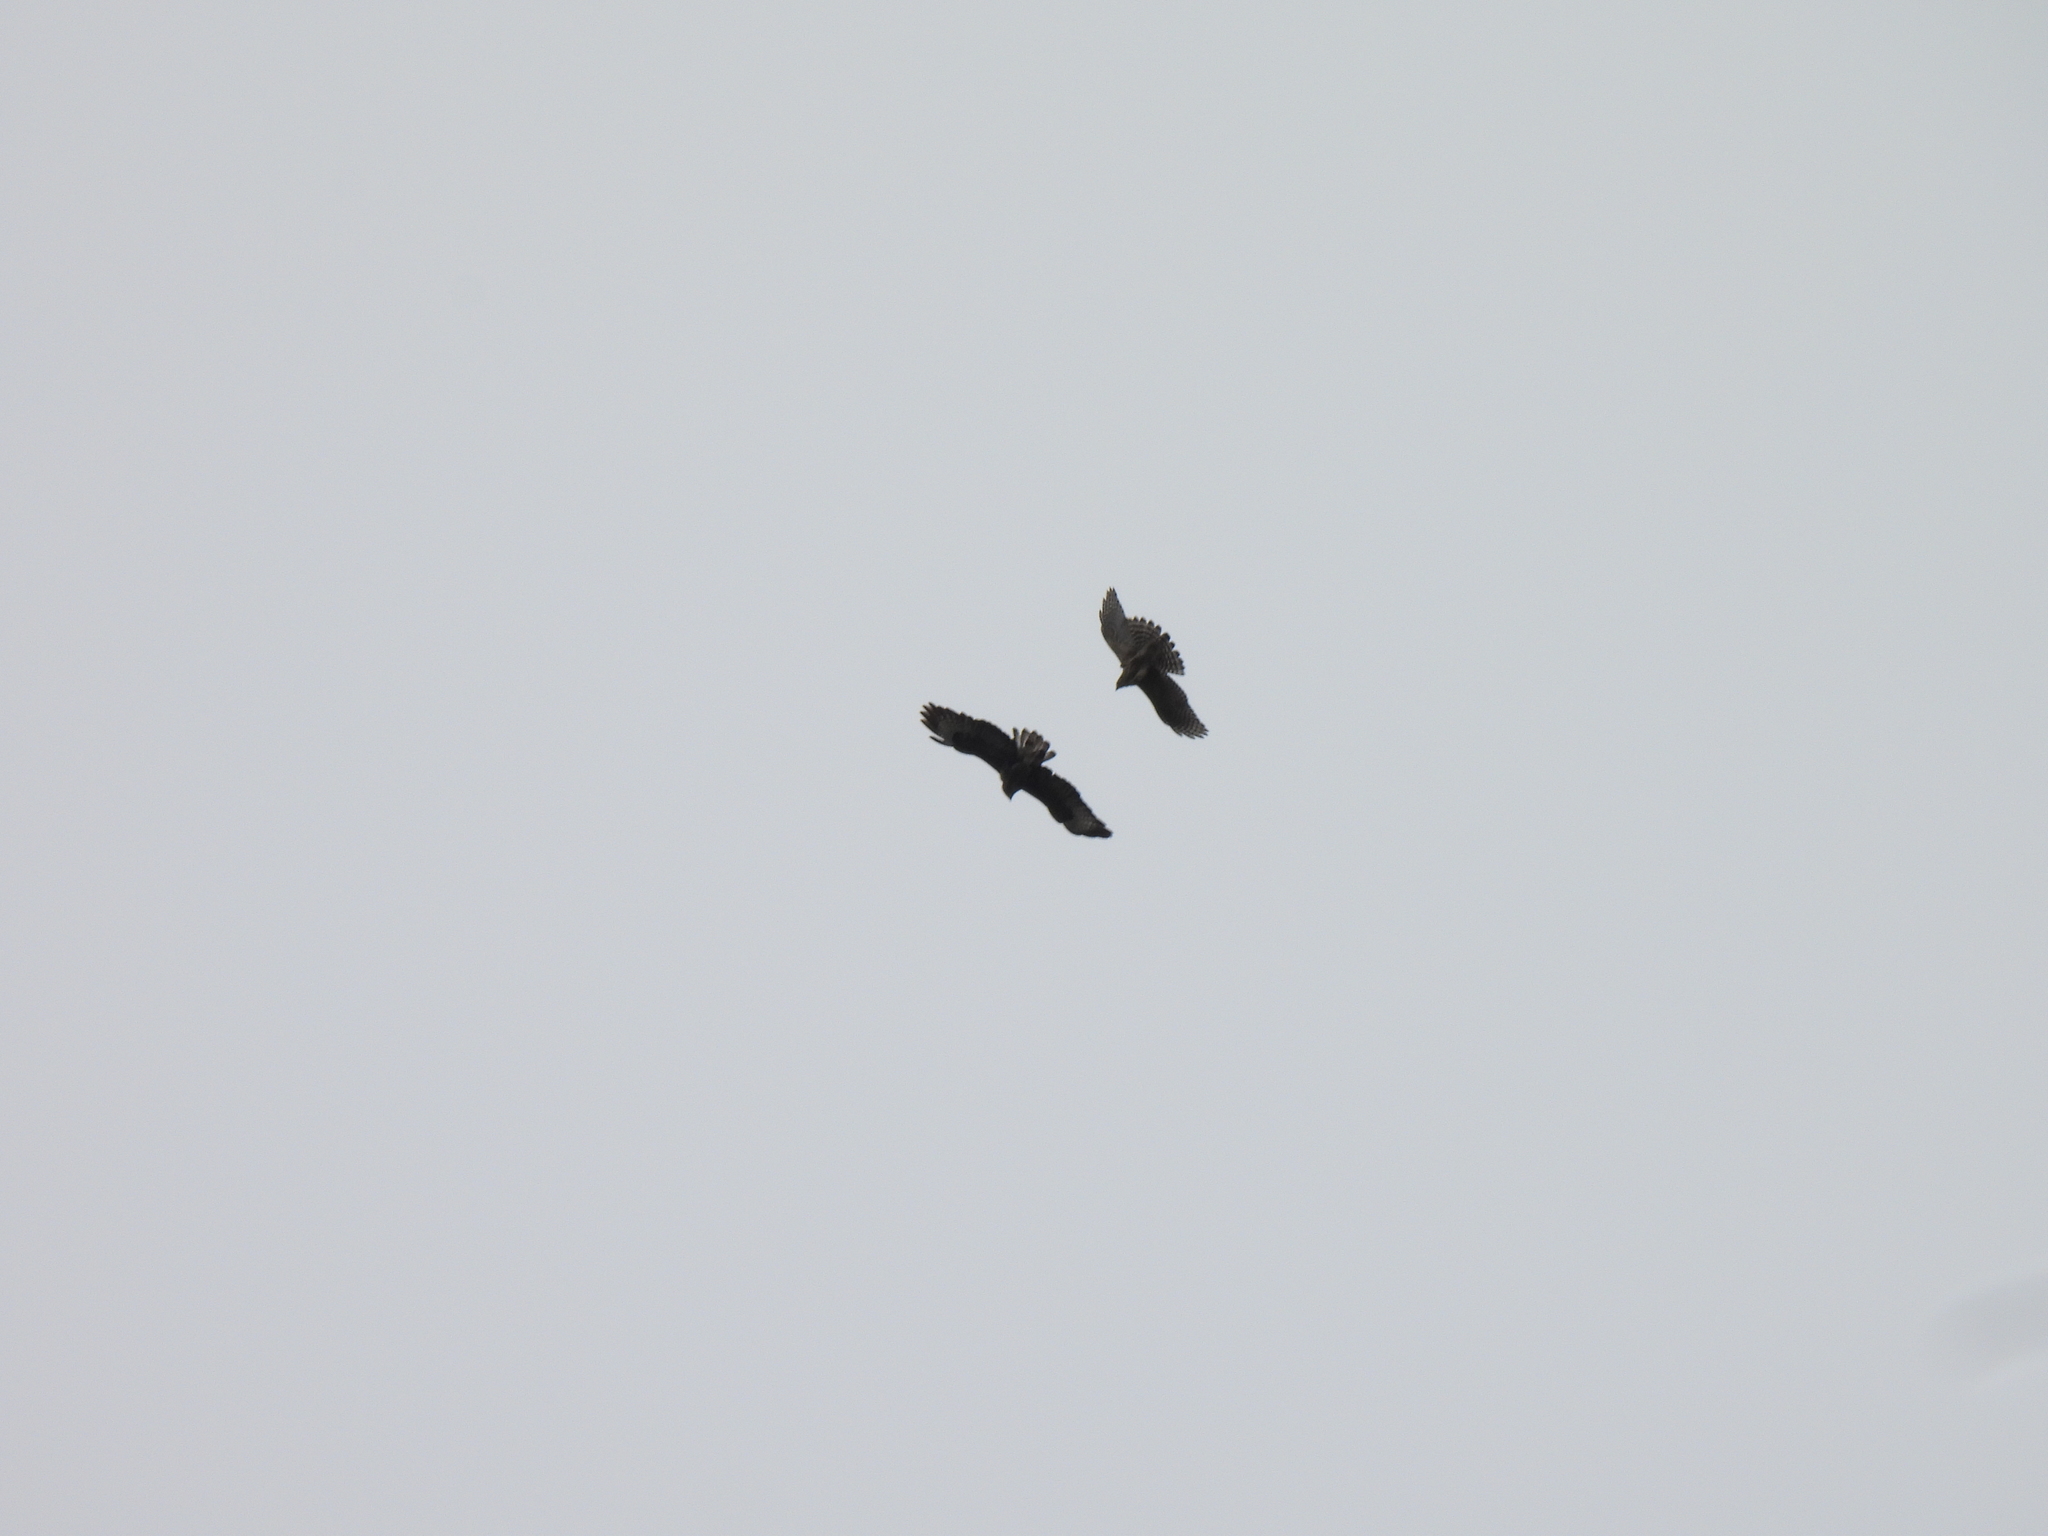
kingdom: Animalia
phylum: Chordata
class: Aves
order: Accipitriformes
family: Accipitridae
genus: Accipiter
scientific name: Accipiter gentilis
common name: Northern goshawk
